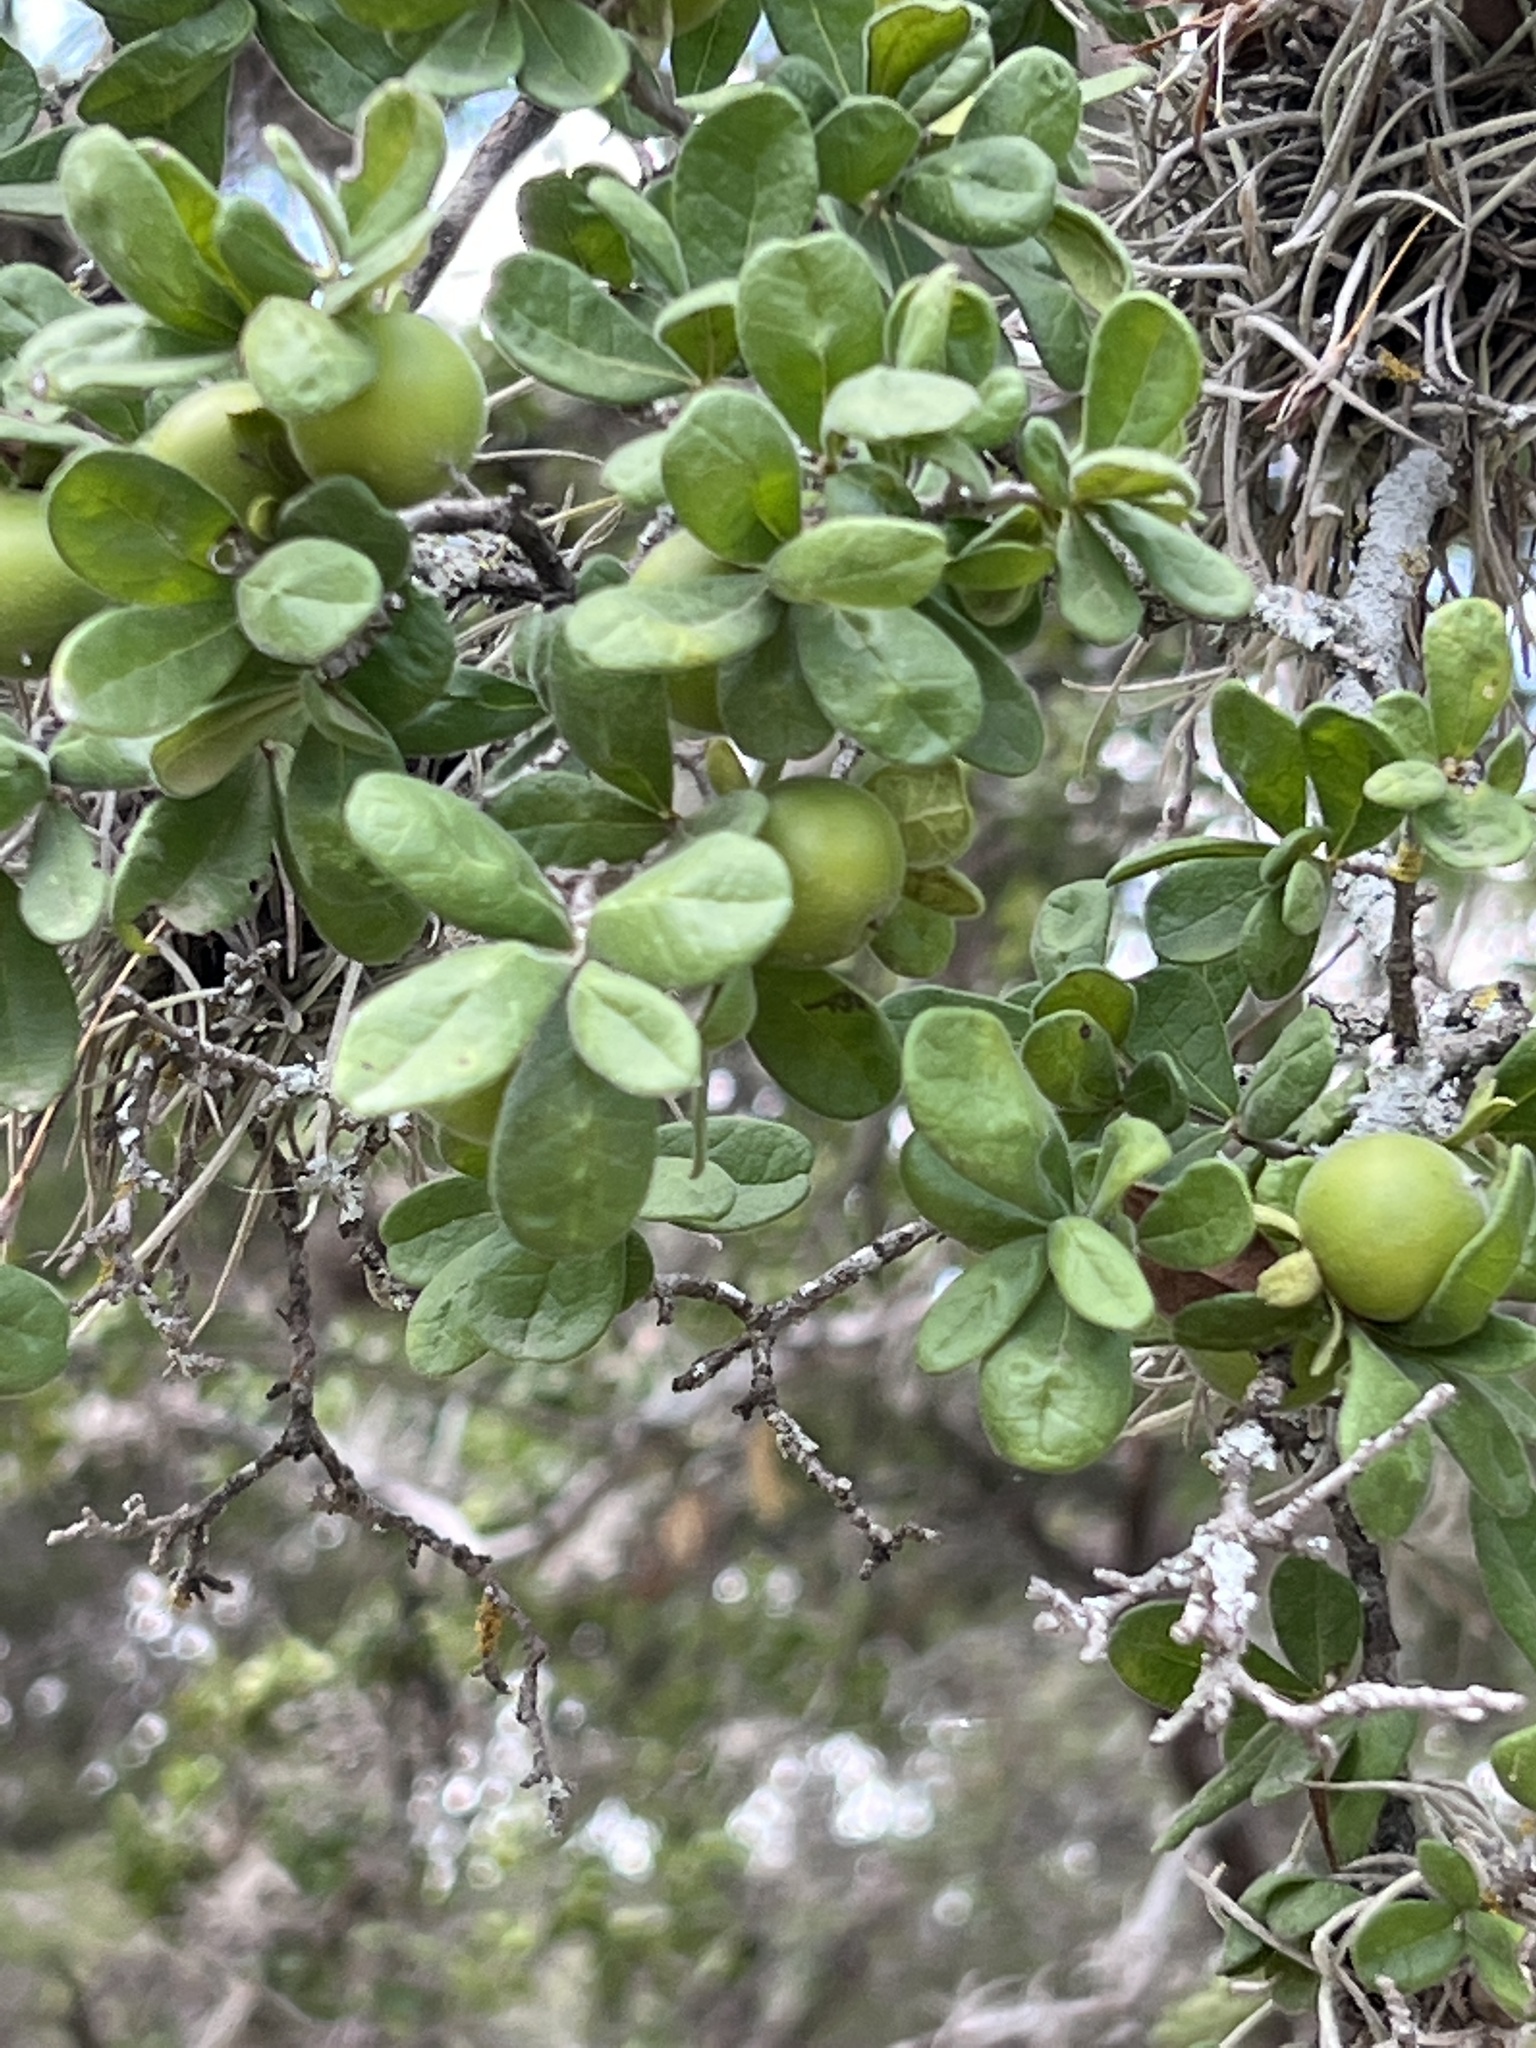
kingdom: Plantae
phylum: Tracheophyta
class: Magnoliopsida
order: Ericales
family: Ebenaceae
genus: Diospyros
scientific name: Diospyros texana
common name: Texas persimmon
